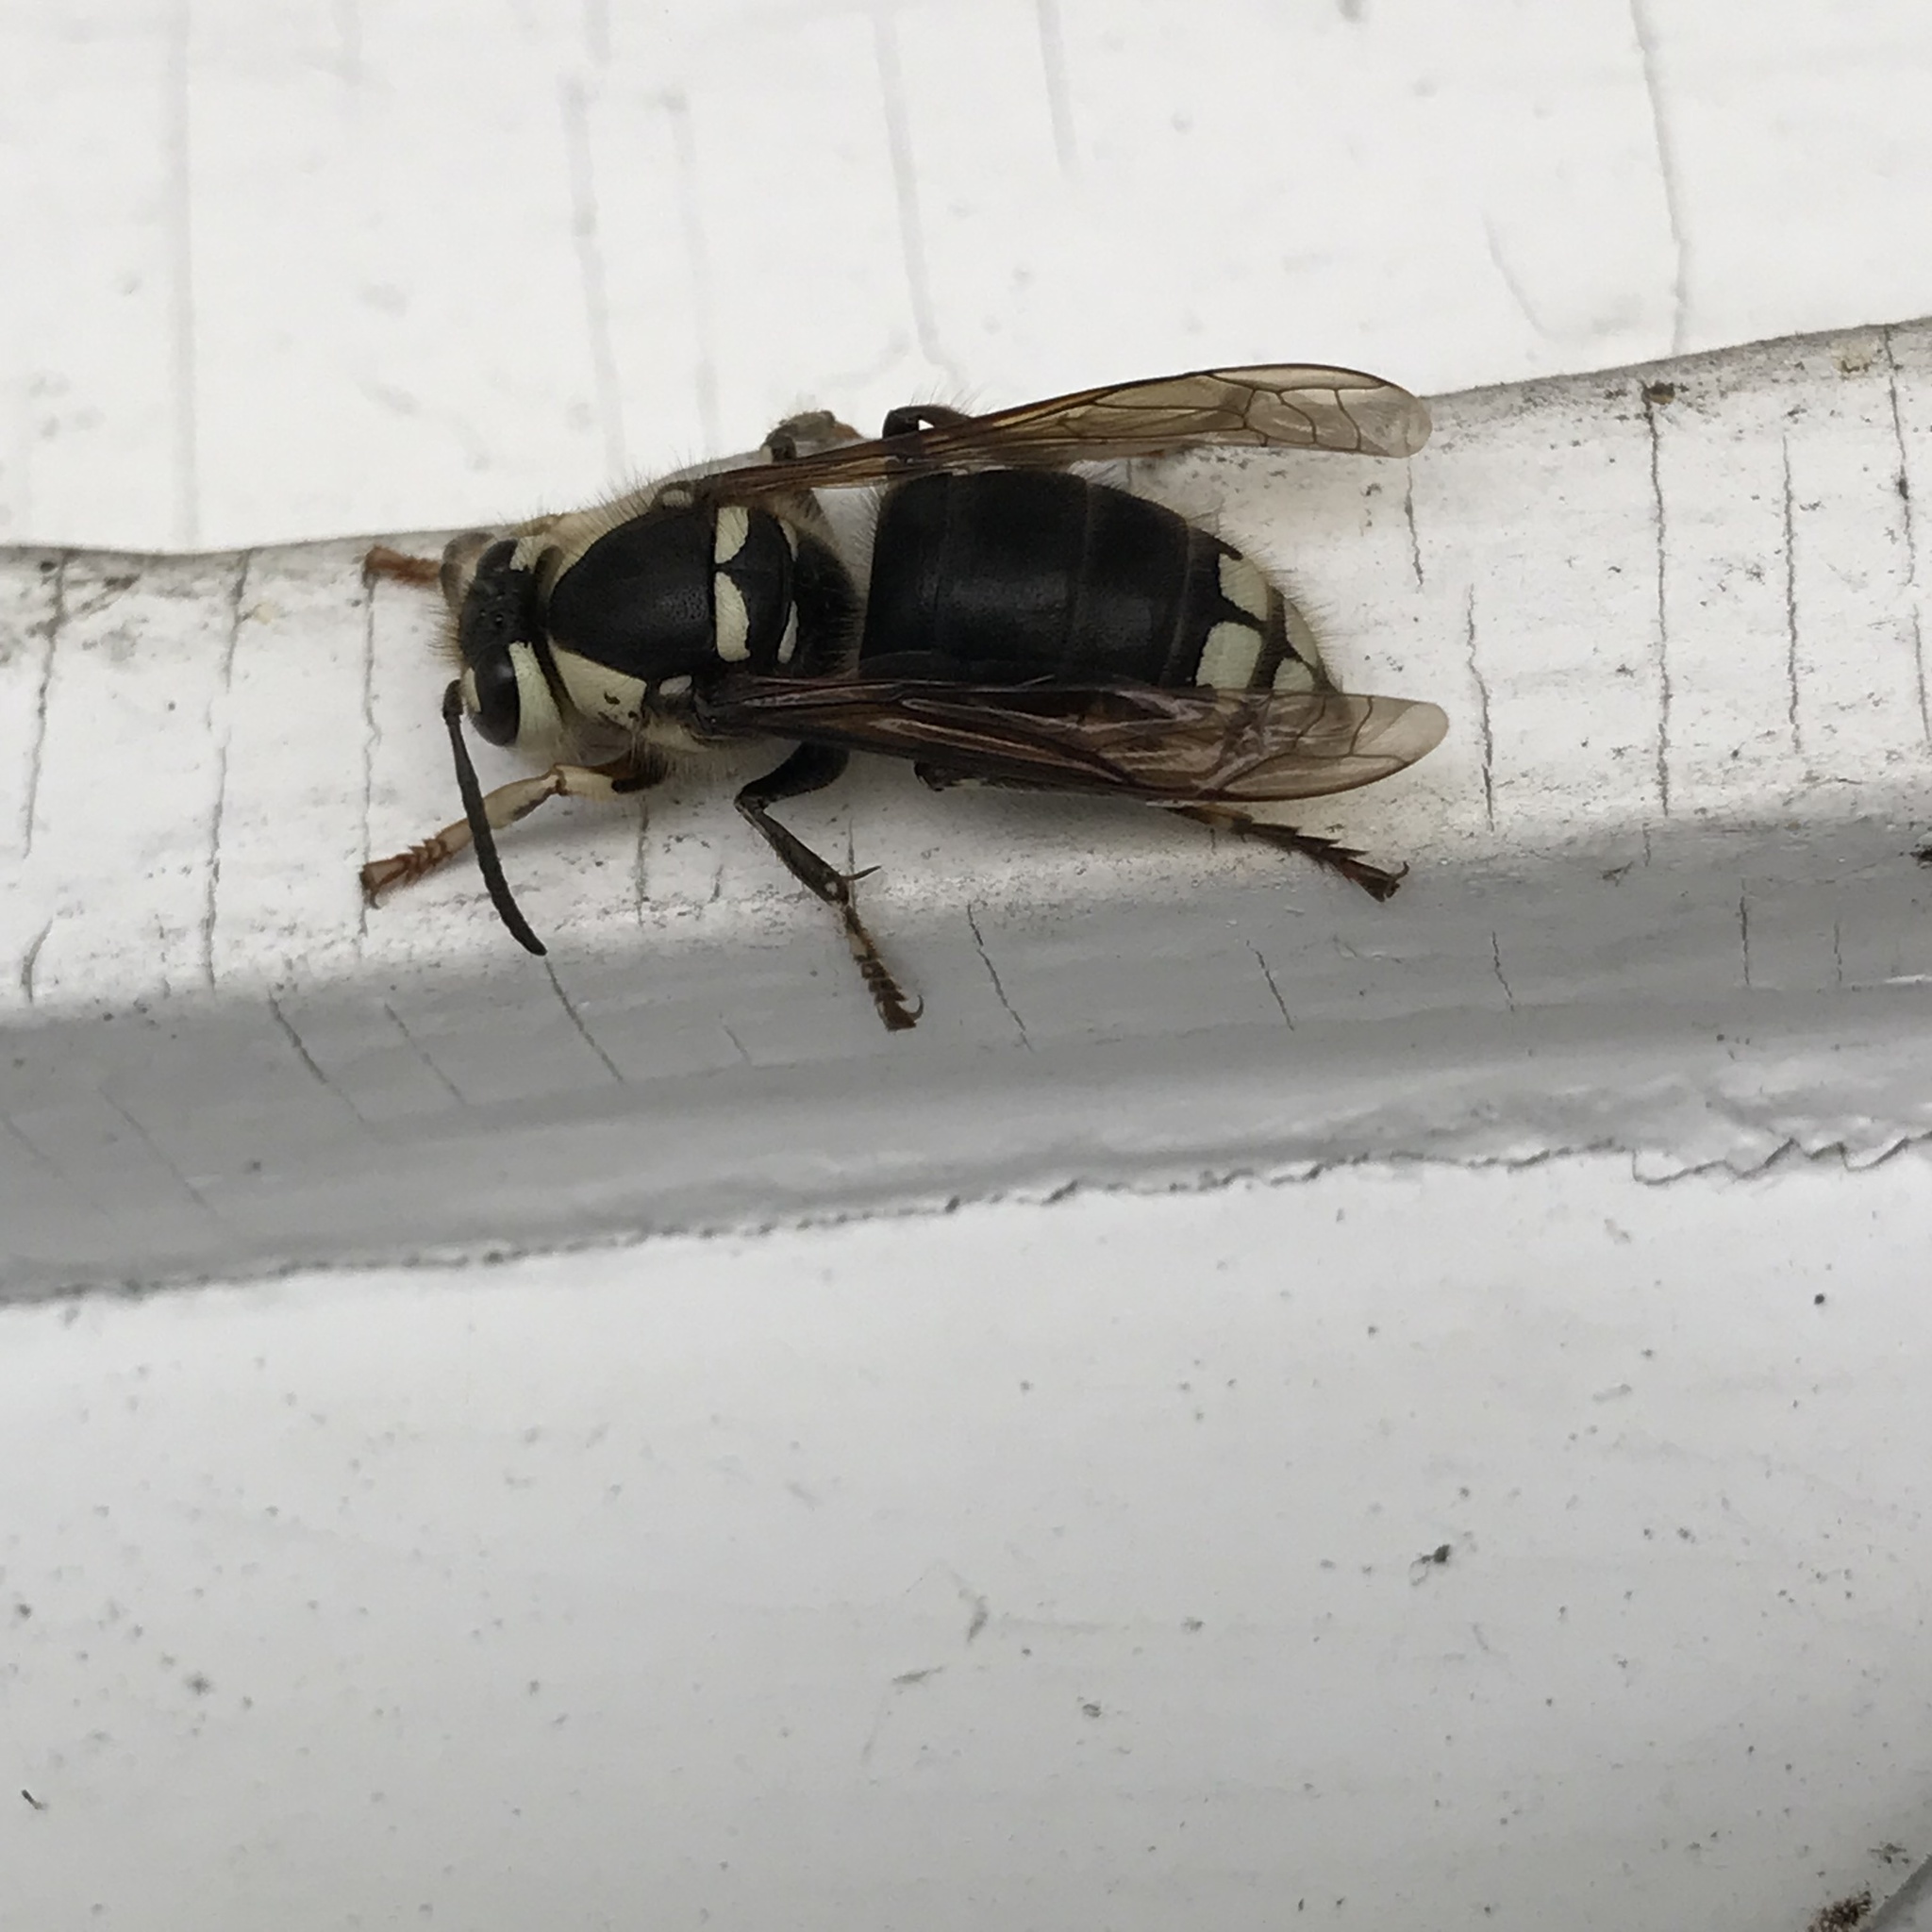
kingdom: Animalia
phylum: Arthropoda
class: Insecta
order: Hymenoptera
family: Vespidae
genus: Dolichovespula
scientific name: Dolichovespula maculata
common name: Bald-faced hornet
